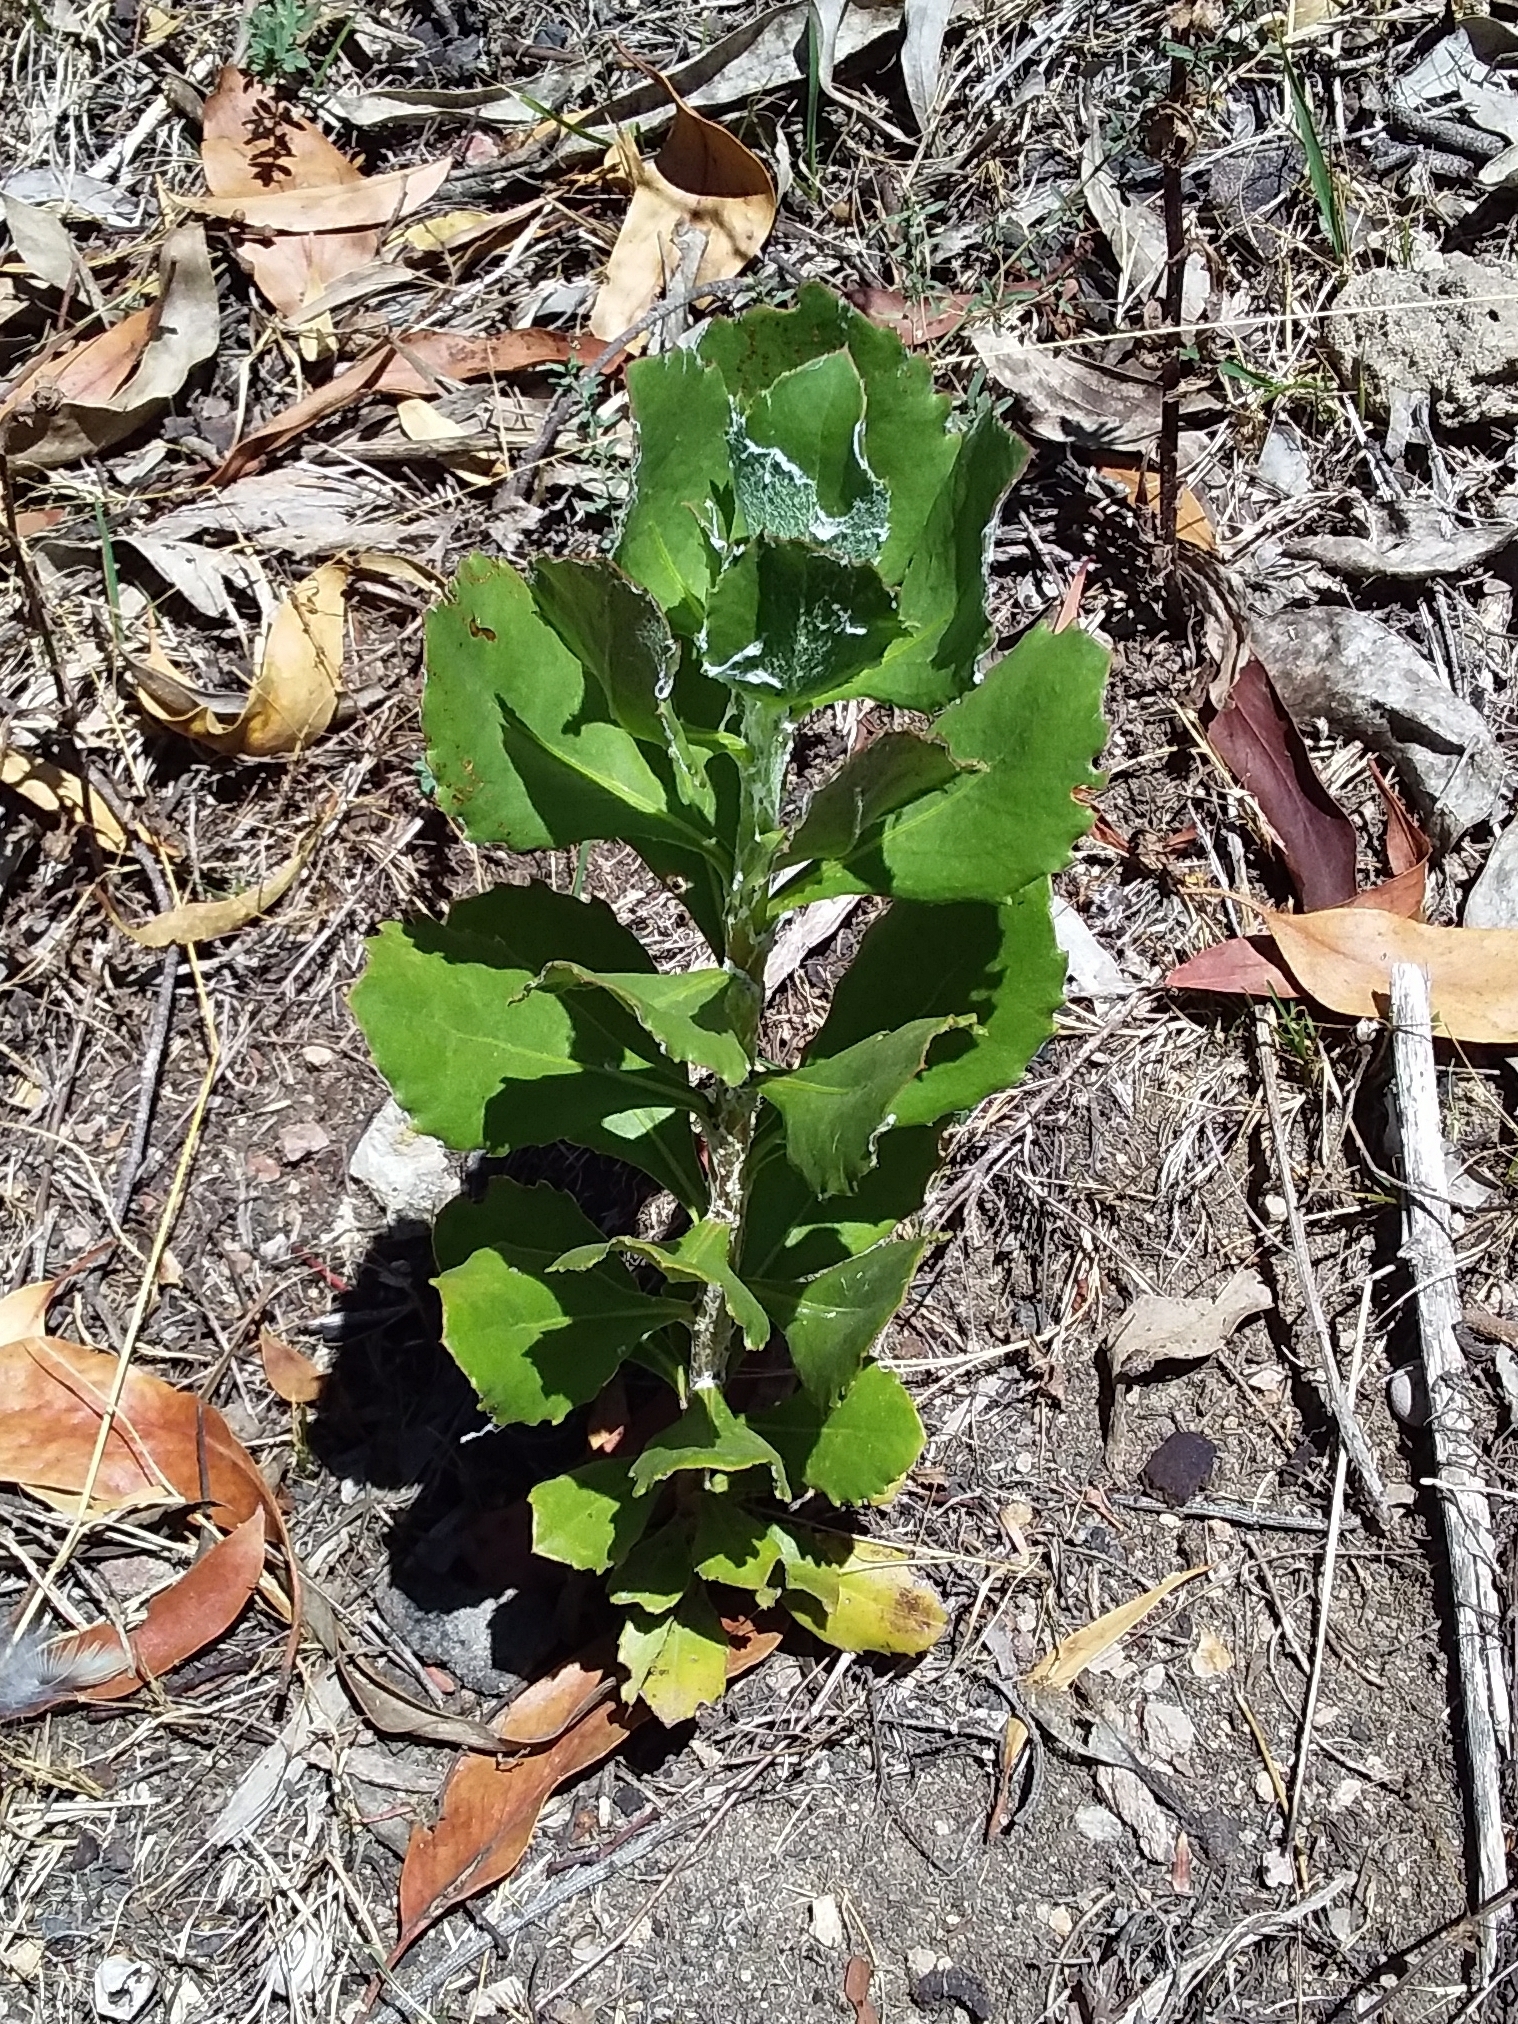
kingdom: Plantae
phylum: Tracheophyta
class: Magnoliopsida
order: Asterales
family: Asteraceae
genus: Osteospermum
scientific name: Osteospermum moniliferum
